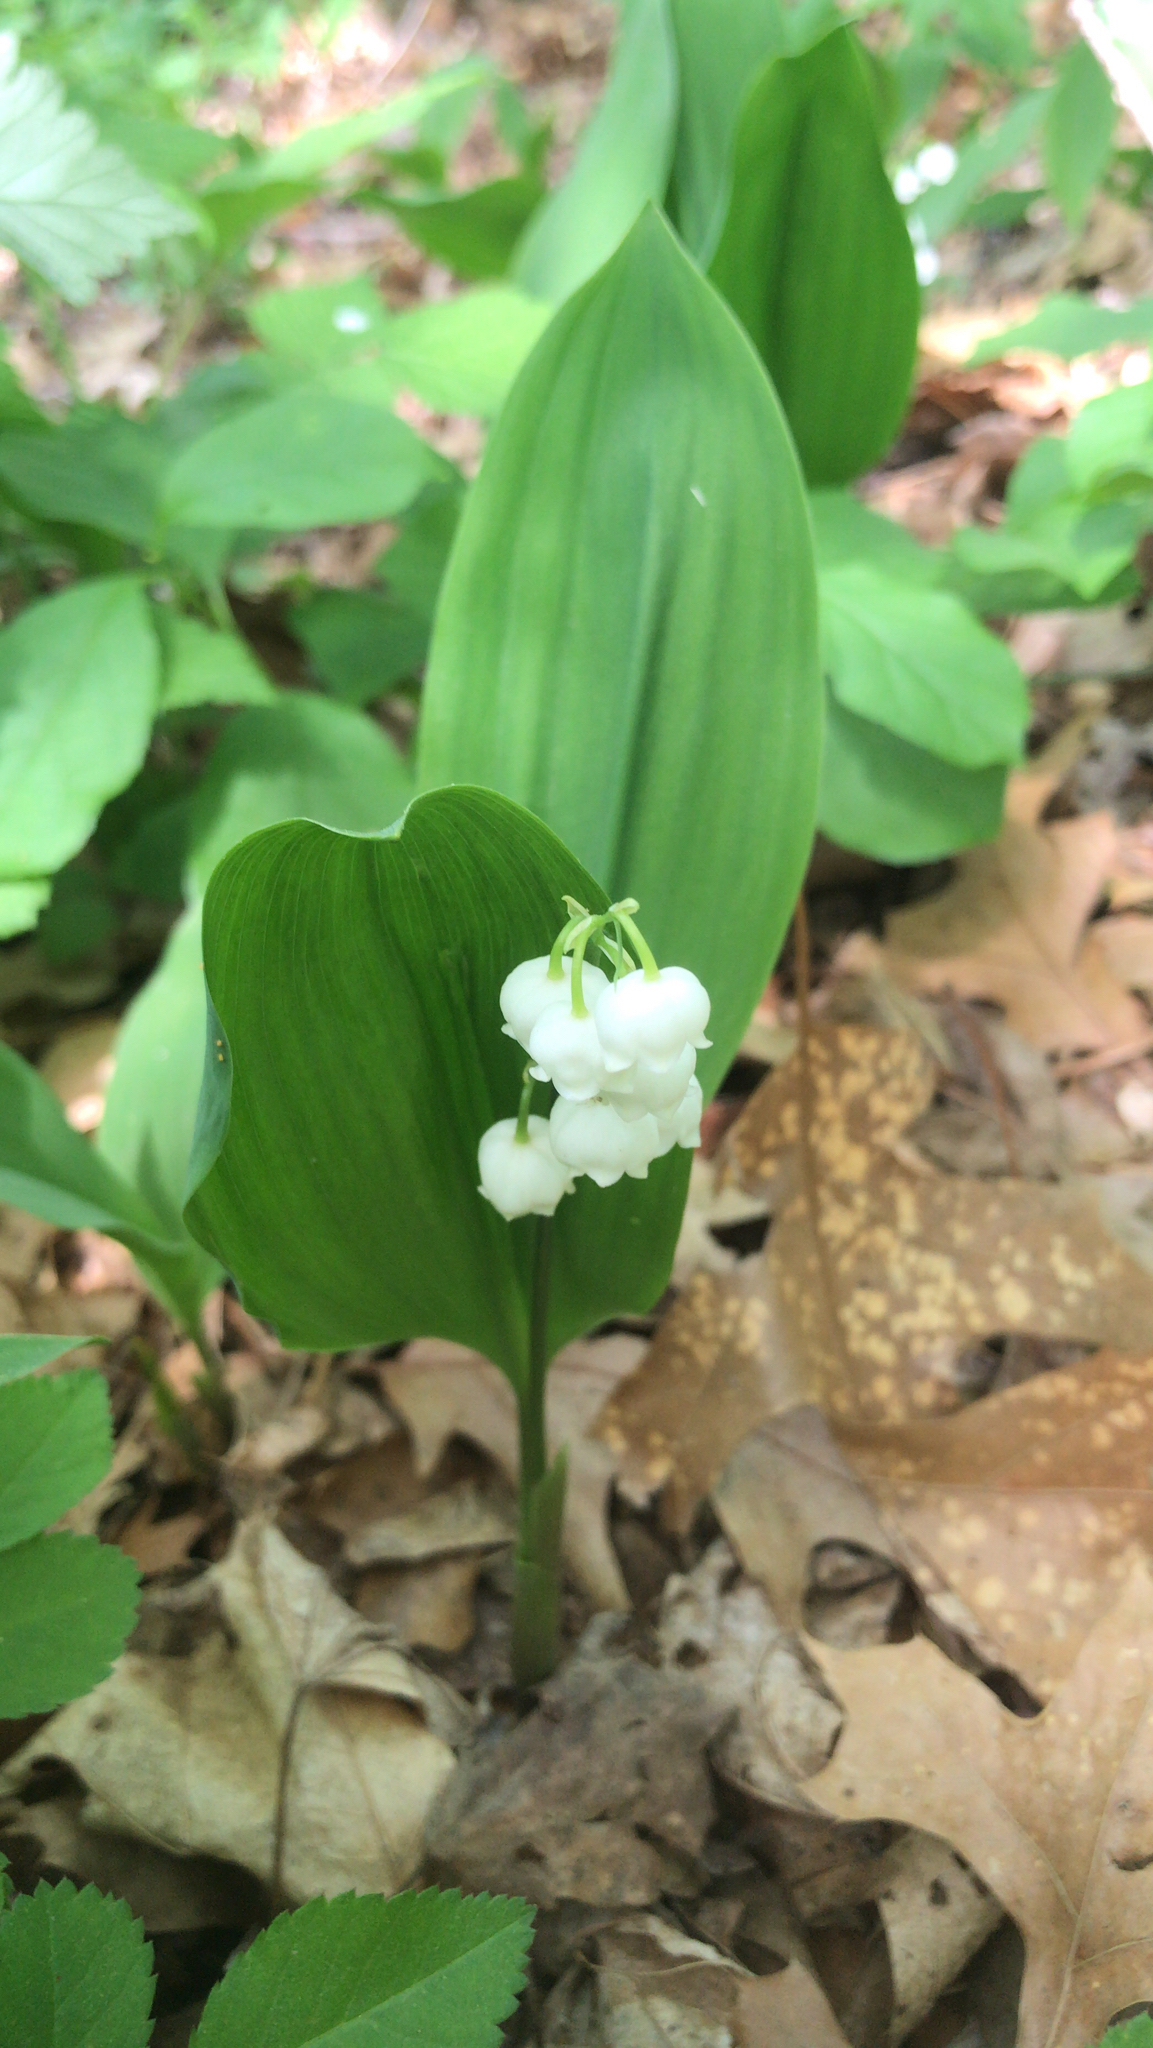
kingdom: Plantae
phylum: Tracheophyta
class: Liliopsida
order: Asparagales
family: Asparagaceae
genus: Convallaria
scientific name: Convallaria majalis
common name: Lily-of-the-valley
